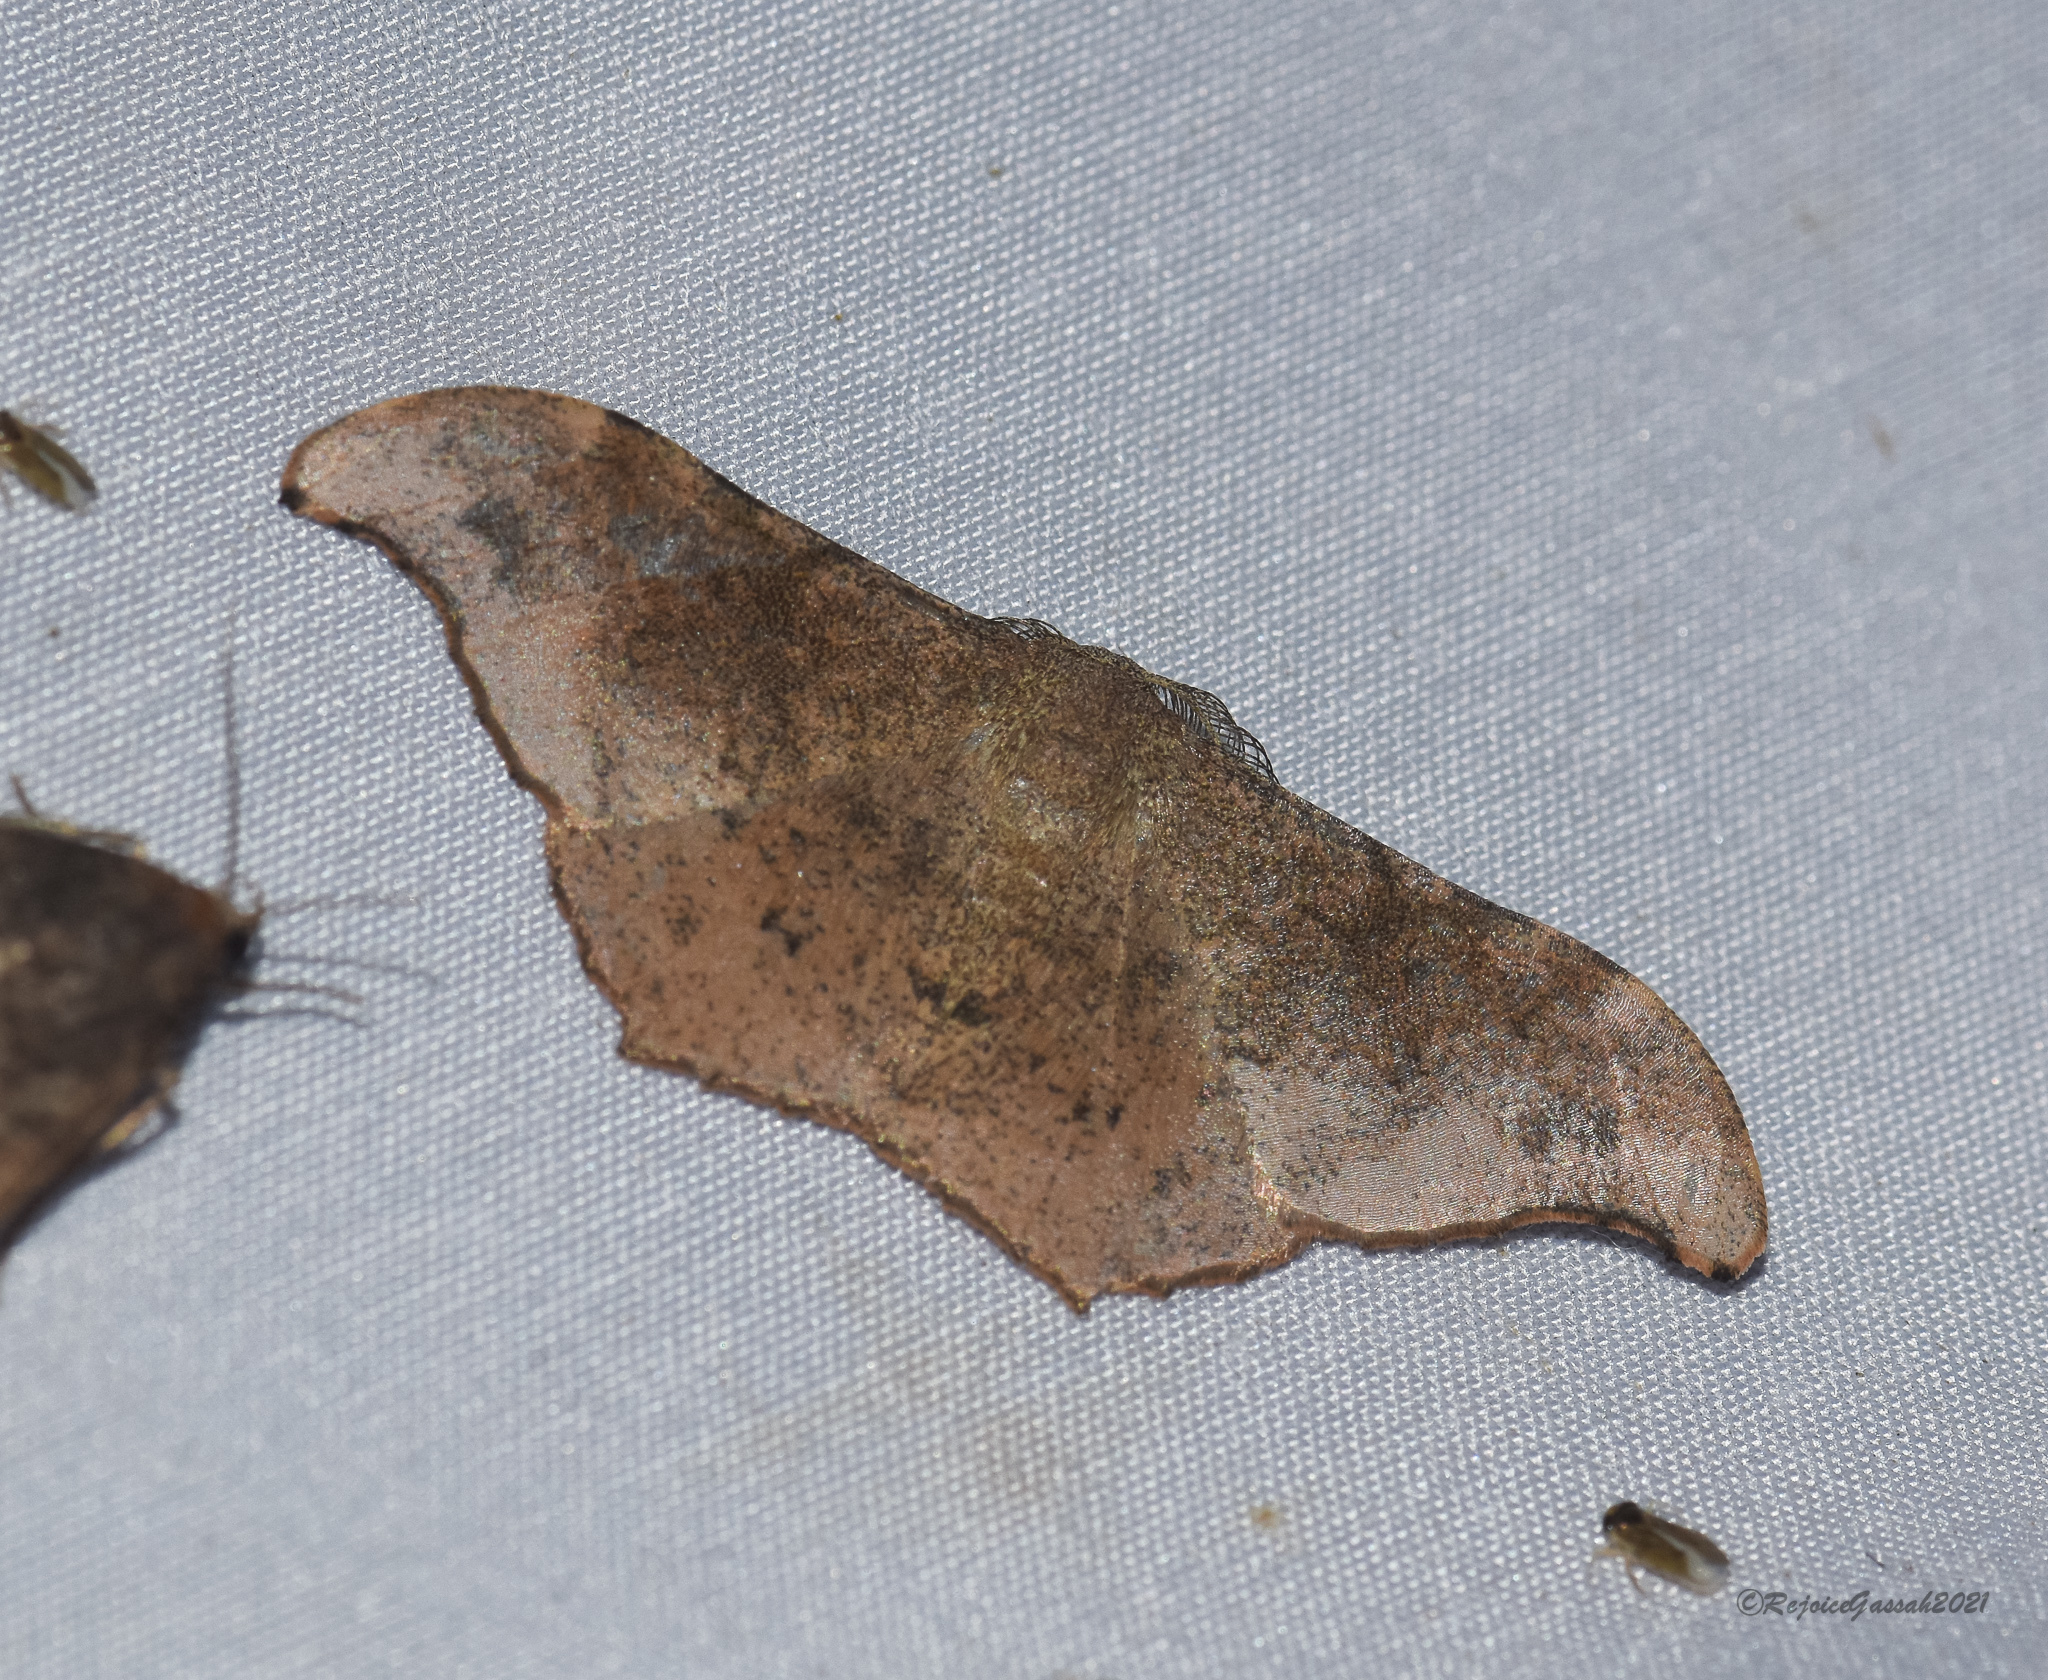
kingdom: Animalia
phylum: Arthropoda
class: Insecta
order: Lepidoptera
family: Geometridae
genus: Hyposidra
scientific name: Hyposidra talaca
